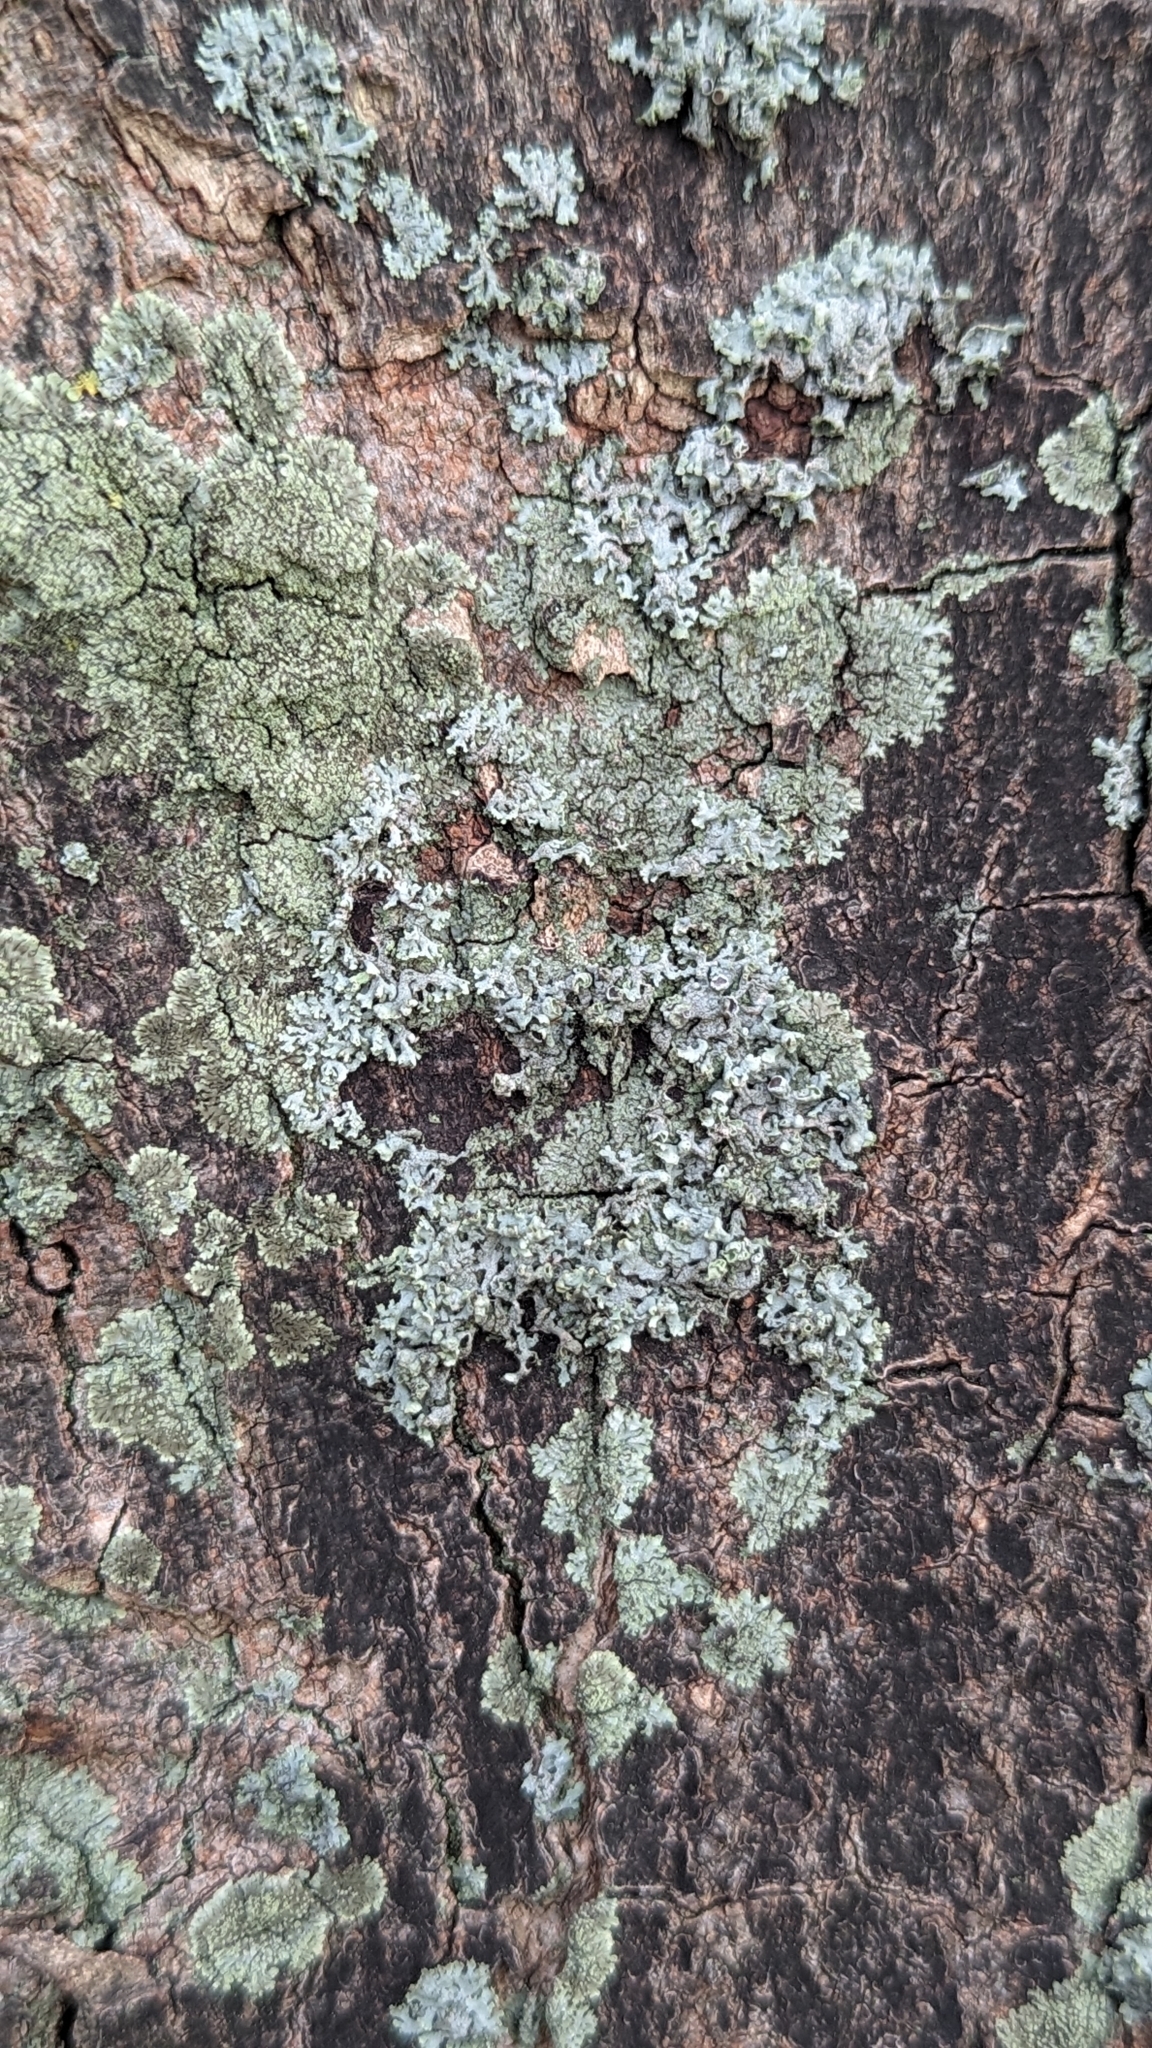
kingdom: Fungi
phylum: Ascomycota
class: Lecanoromycetes
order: Caliciales
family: Physciaceae
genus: Hyperphyscia
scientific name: Hyperphyscia adglutinata
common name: Grainy shadow-crust lichen
